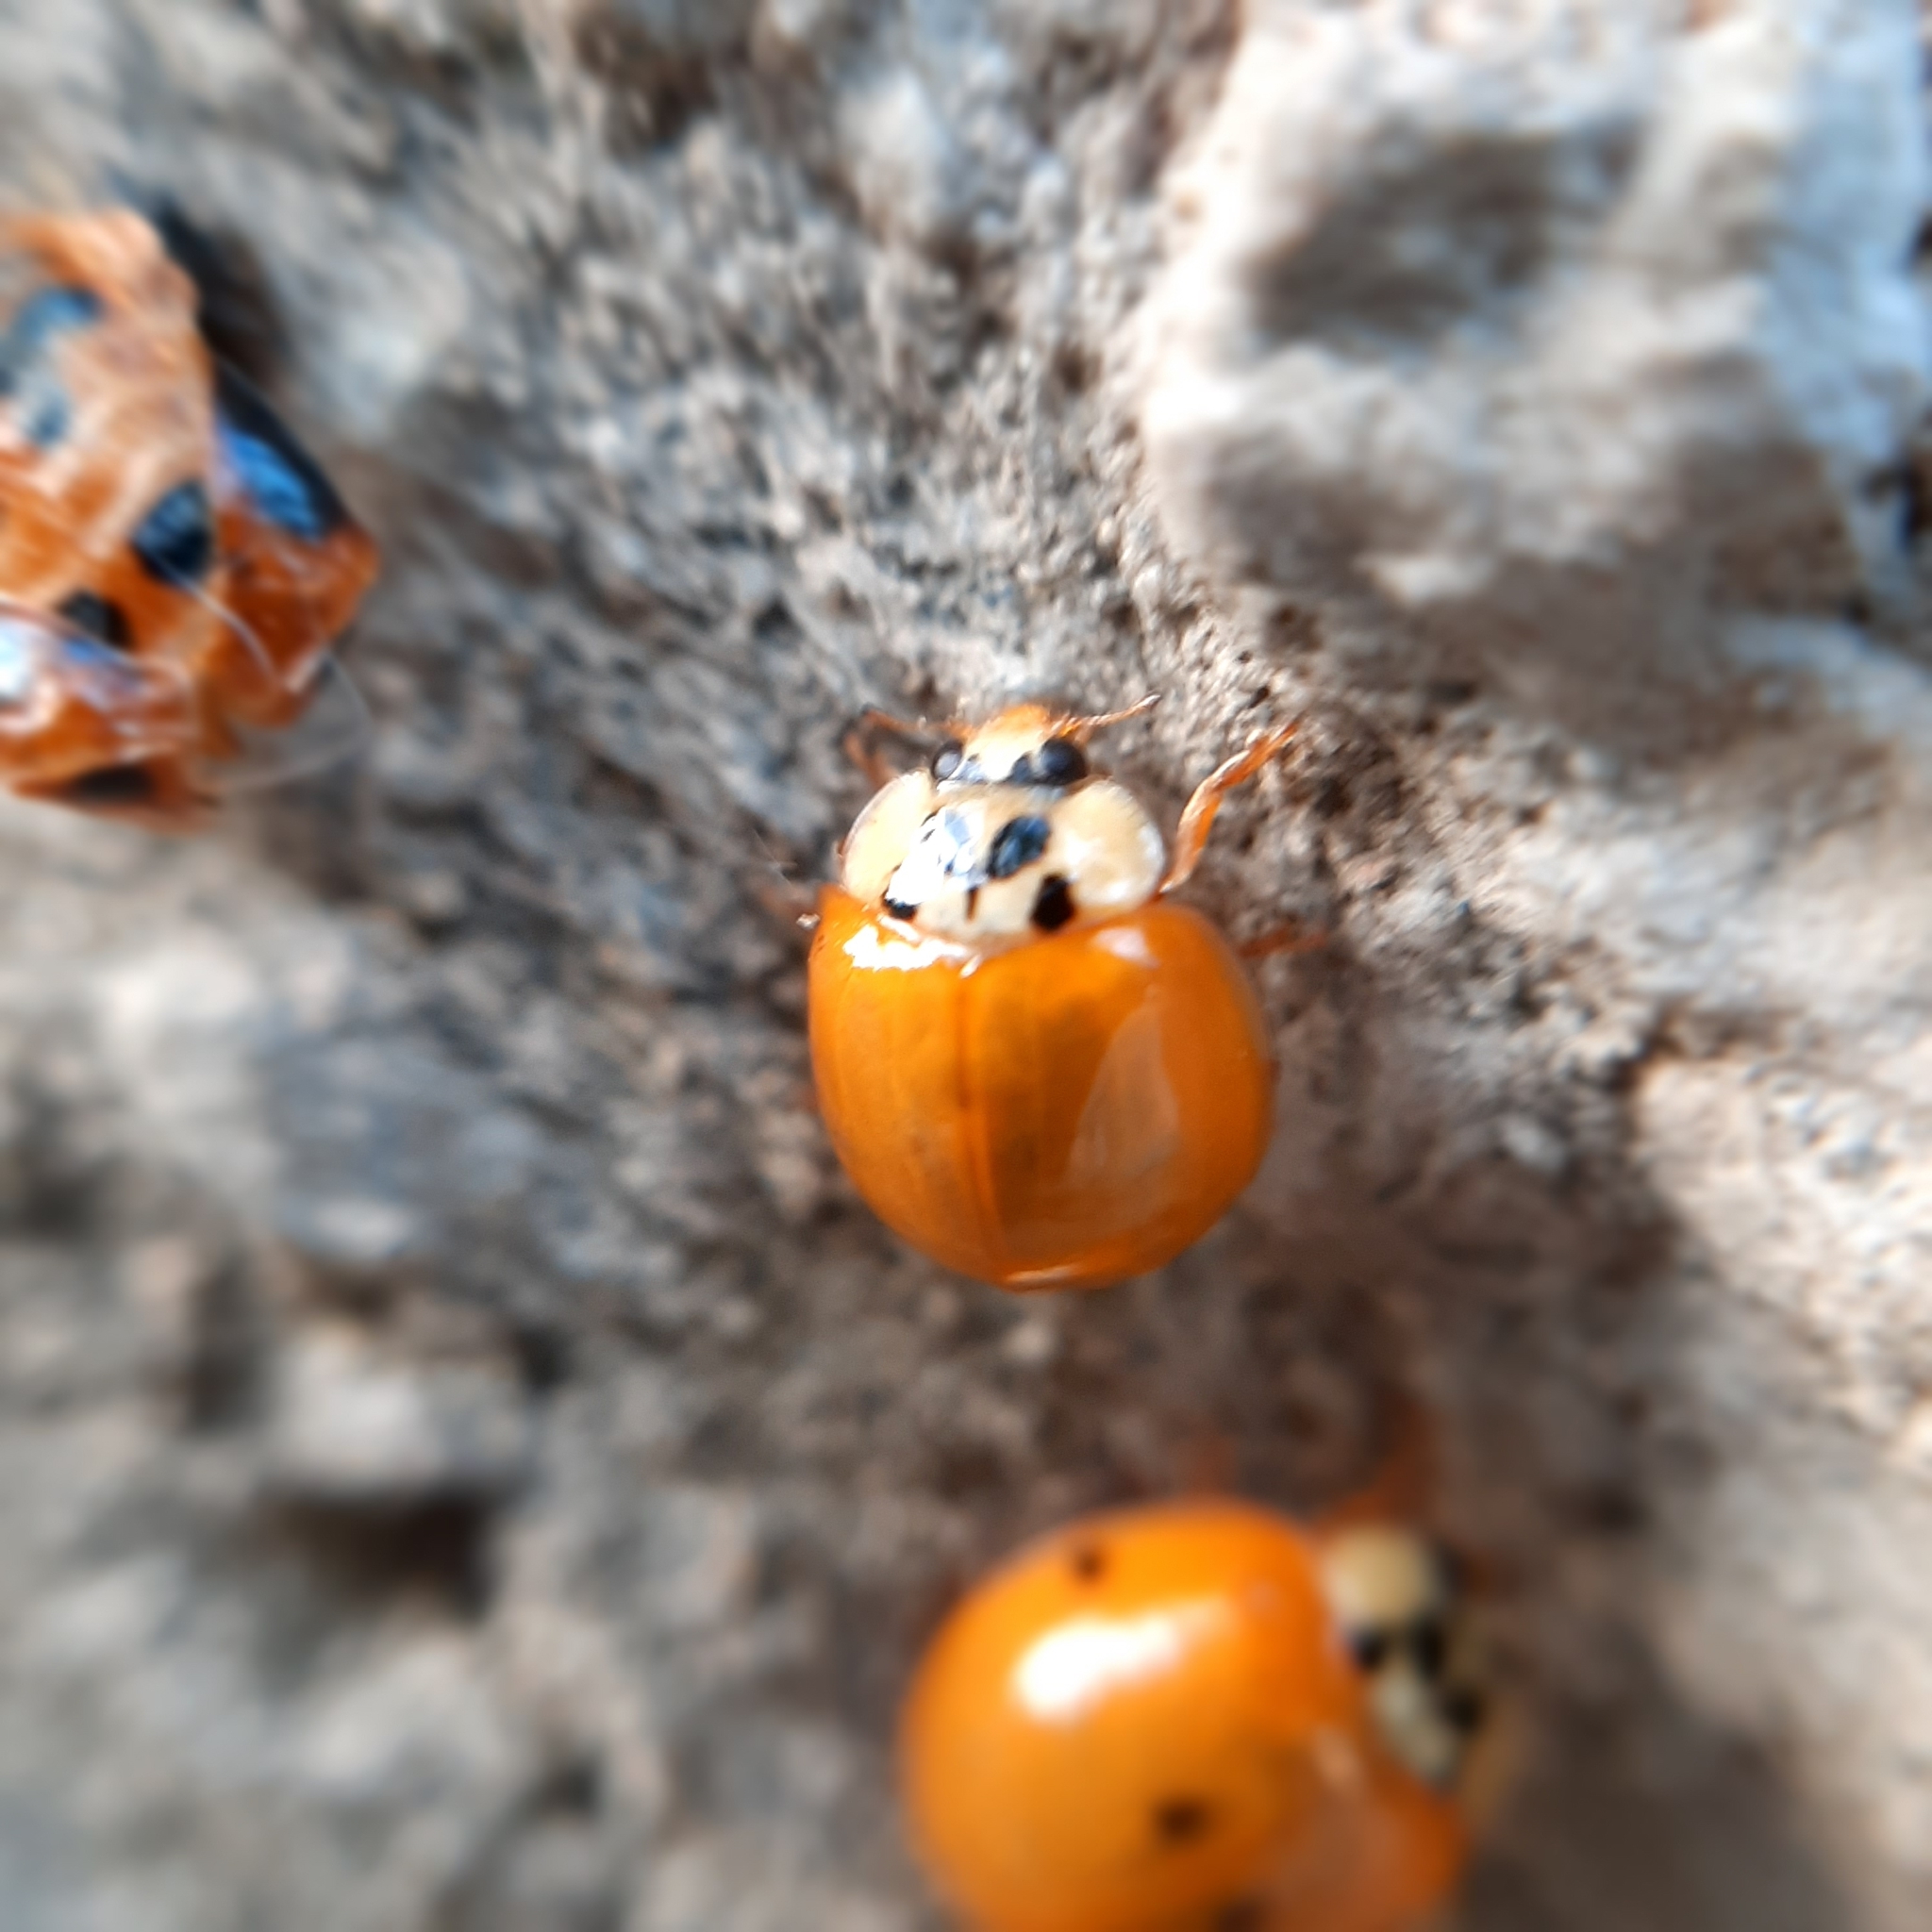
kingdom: Animalia
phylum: Arthropoda
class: Insecta
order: Coleoptera
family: Coccinellidae
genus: Harmonia
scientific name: Harmonia axyridis
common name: Harlequin ladybird
